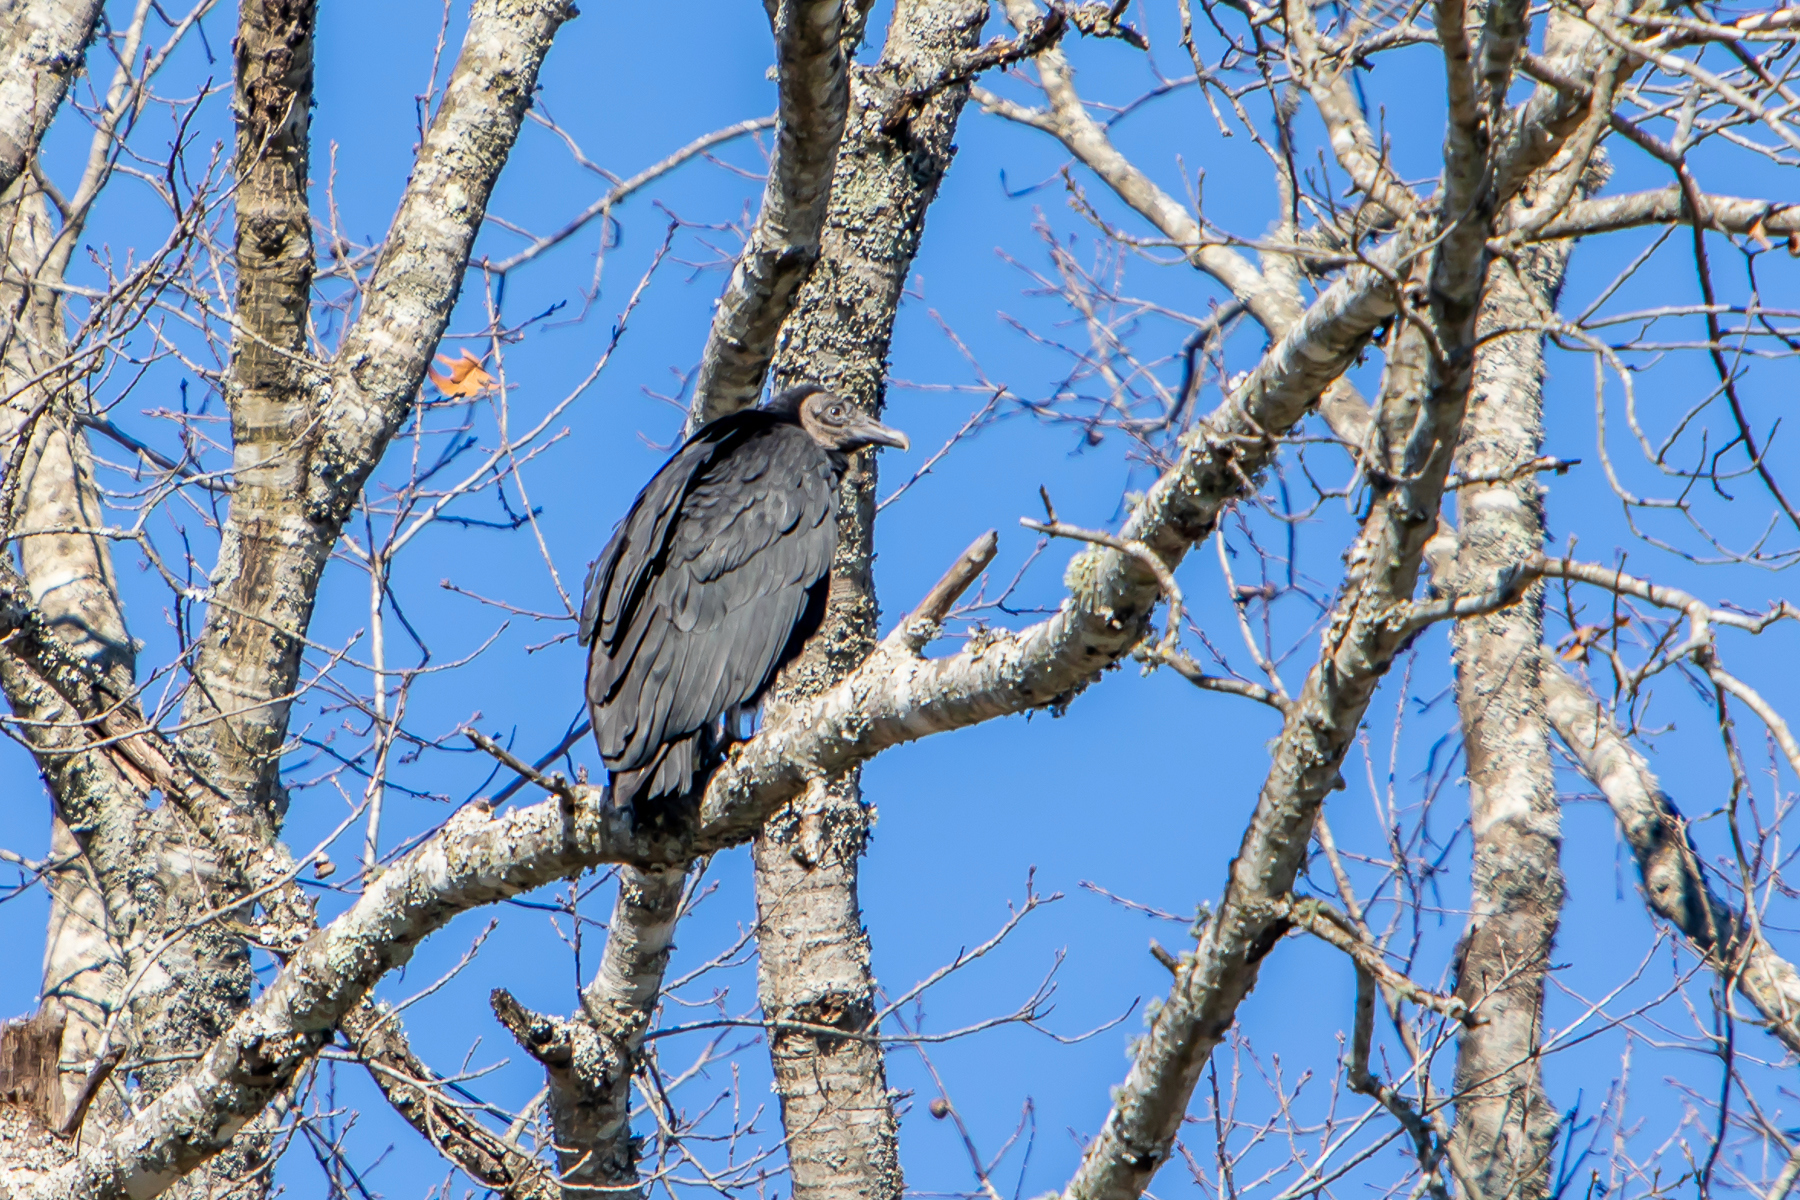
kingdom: Animalia
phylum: Chordata
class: Aves
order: Accipitriformes
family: Cathartidae
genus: Coragyps
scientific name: Coragyps atratus
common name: Black vulture
